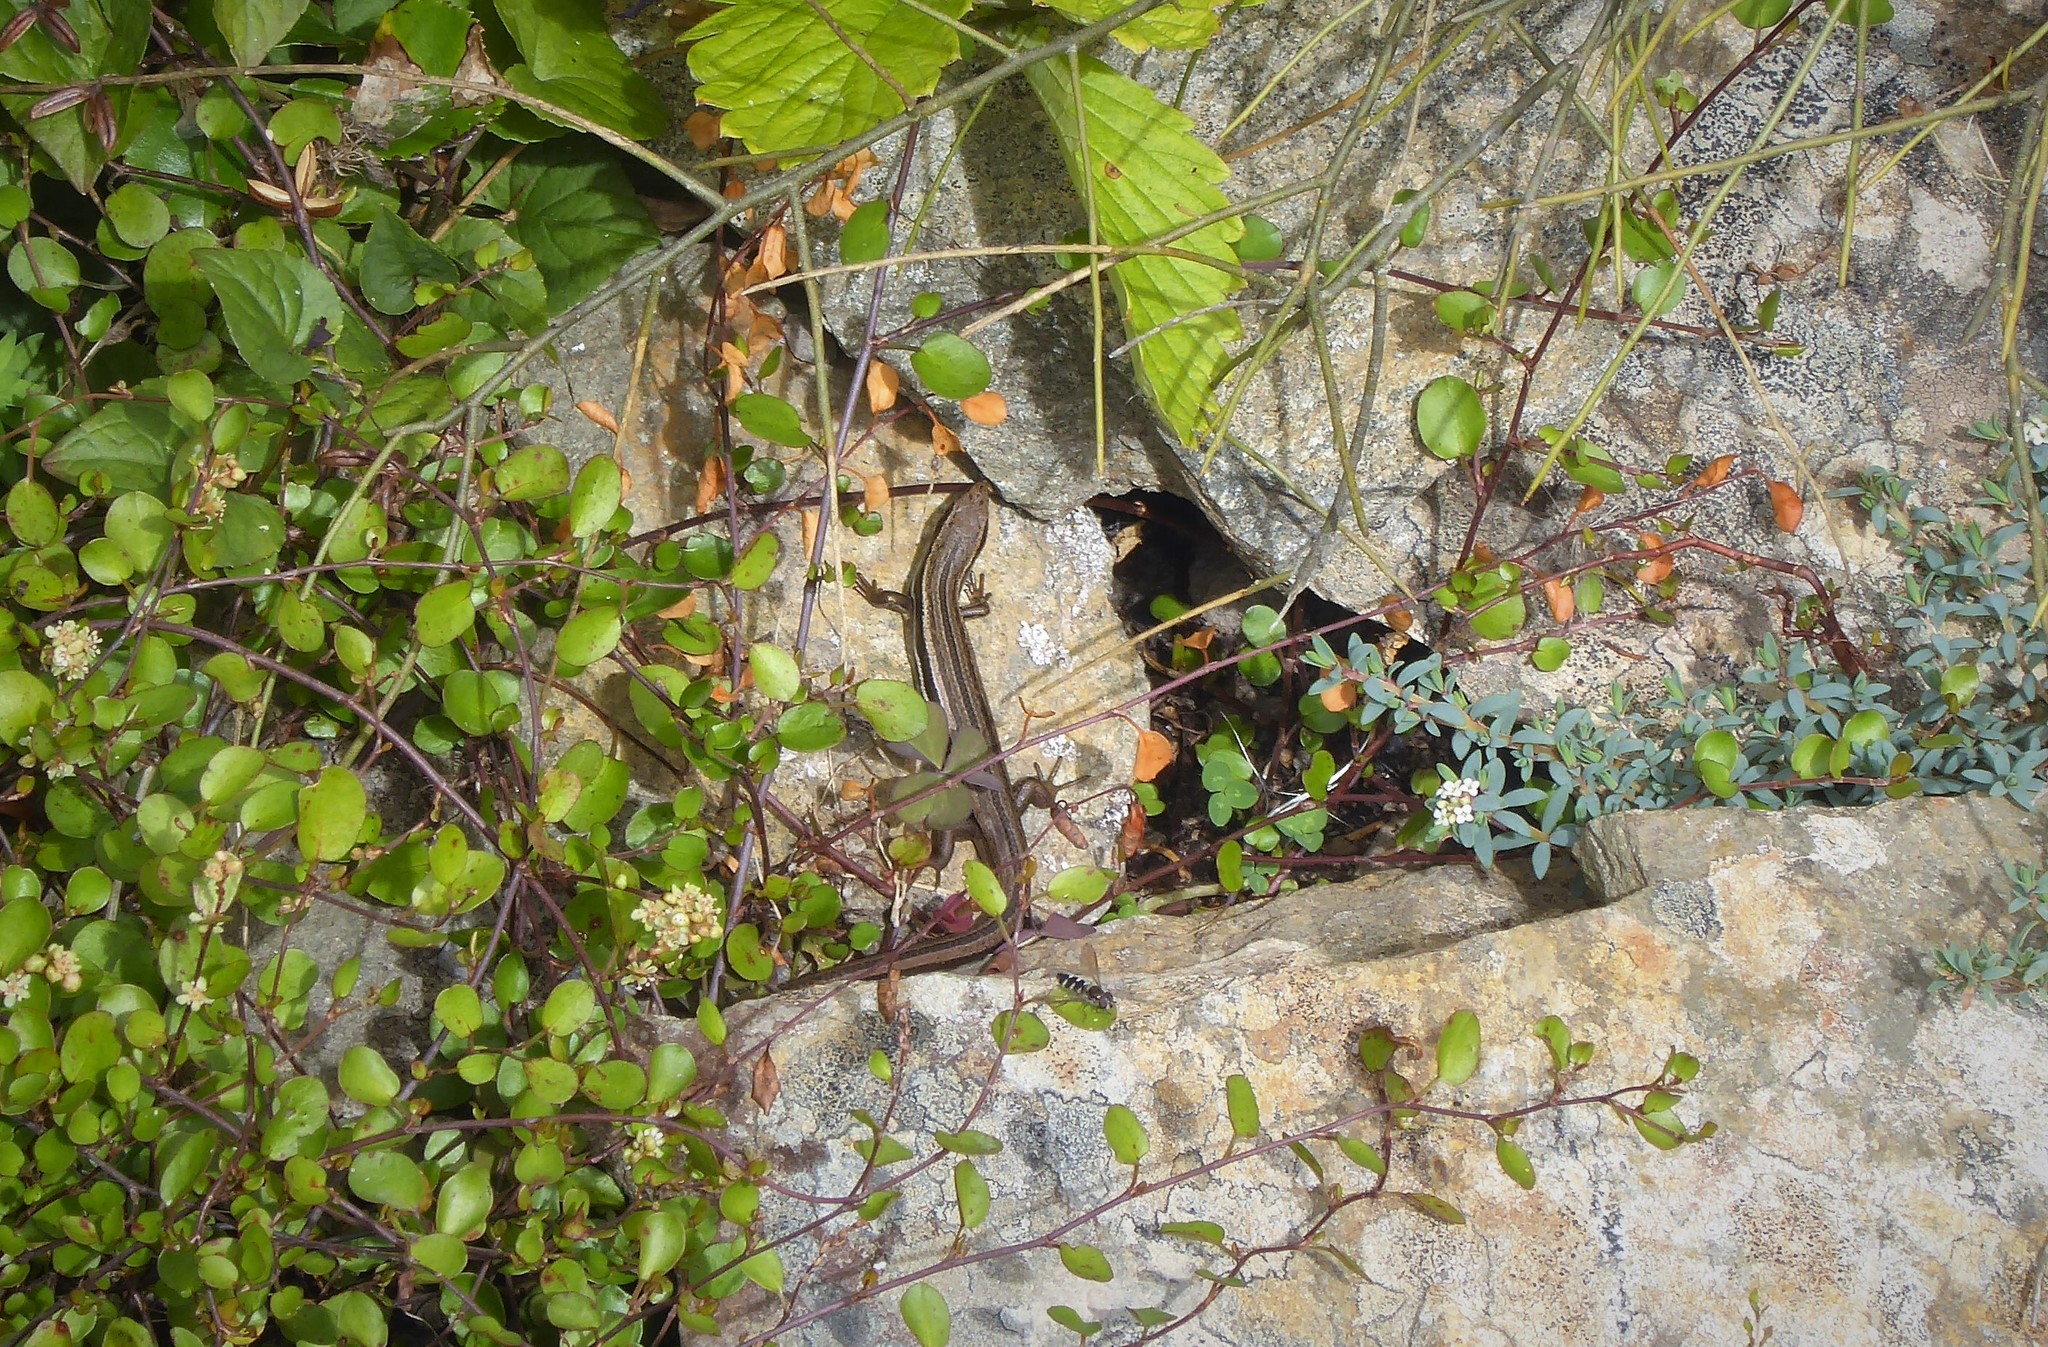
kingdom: Animalia
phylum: Chordata
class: Squamata
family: Scincidae
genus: Oligosoma
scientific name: Oligosoma polychroma
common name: Common new zealand skink
